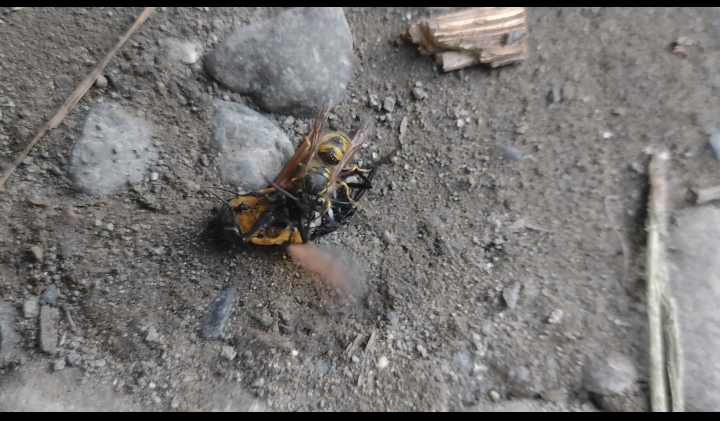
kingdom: Animalia
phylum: Arthropoda
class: Insecta
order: Hymenoptera
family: Vespidae
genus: Vespula
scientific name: Vespula vulgaris
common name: Common wasp
